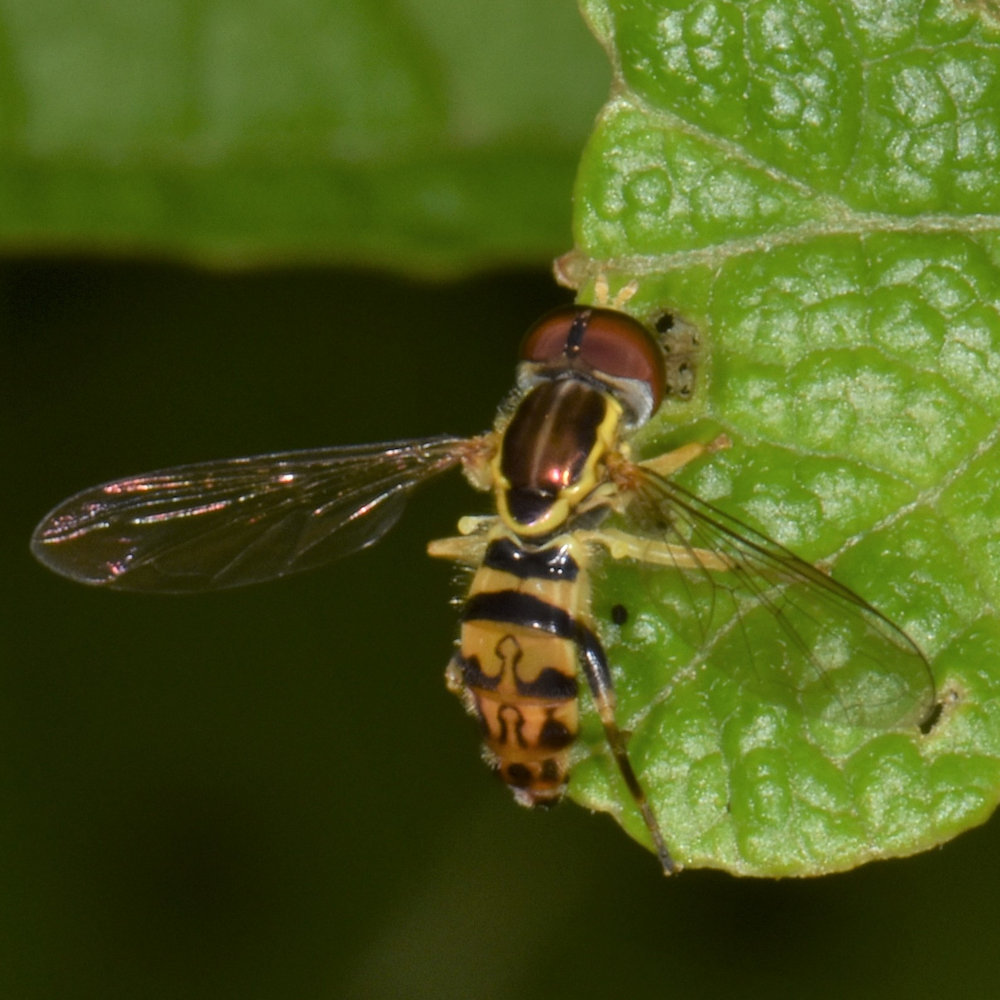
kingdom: Animalia
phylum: Arthropoda
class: Insecta
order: Diptera
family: Syrphidae
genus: Toxomerus
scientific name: Toxomerus geminatus
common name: Eastern calligrapher
